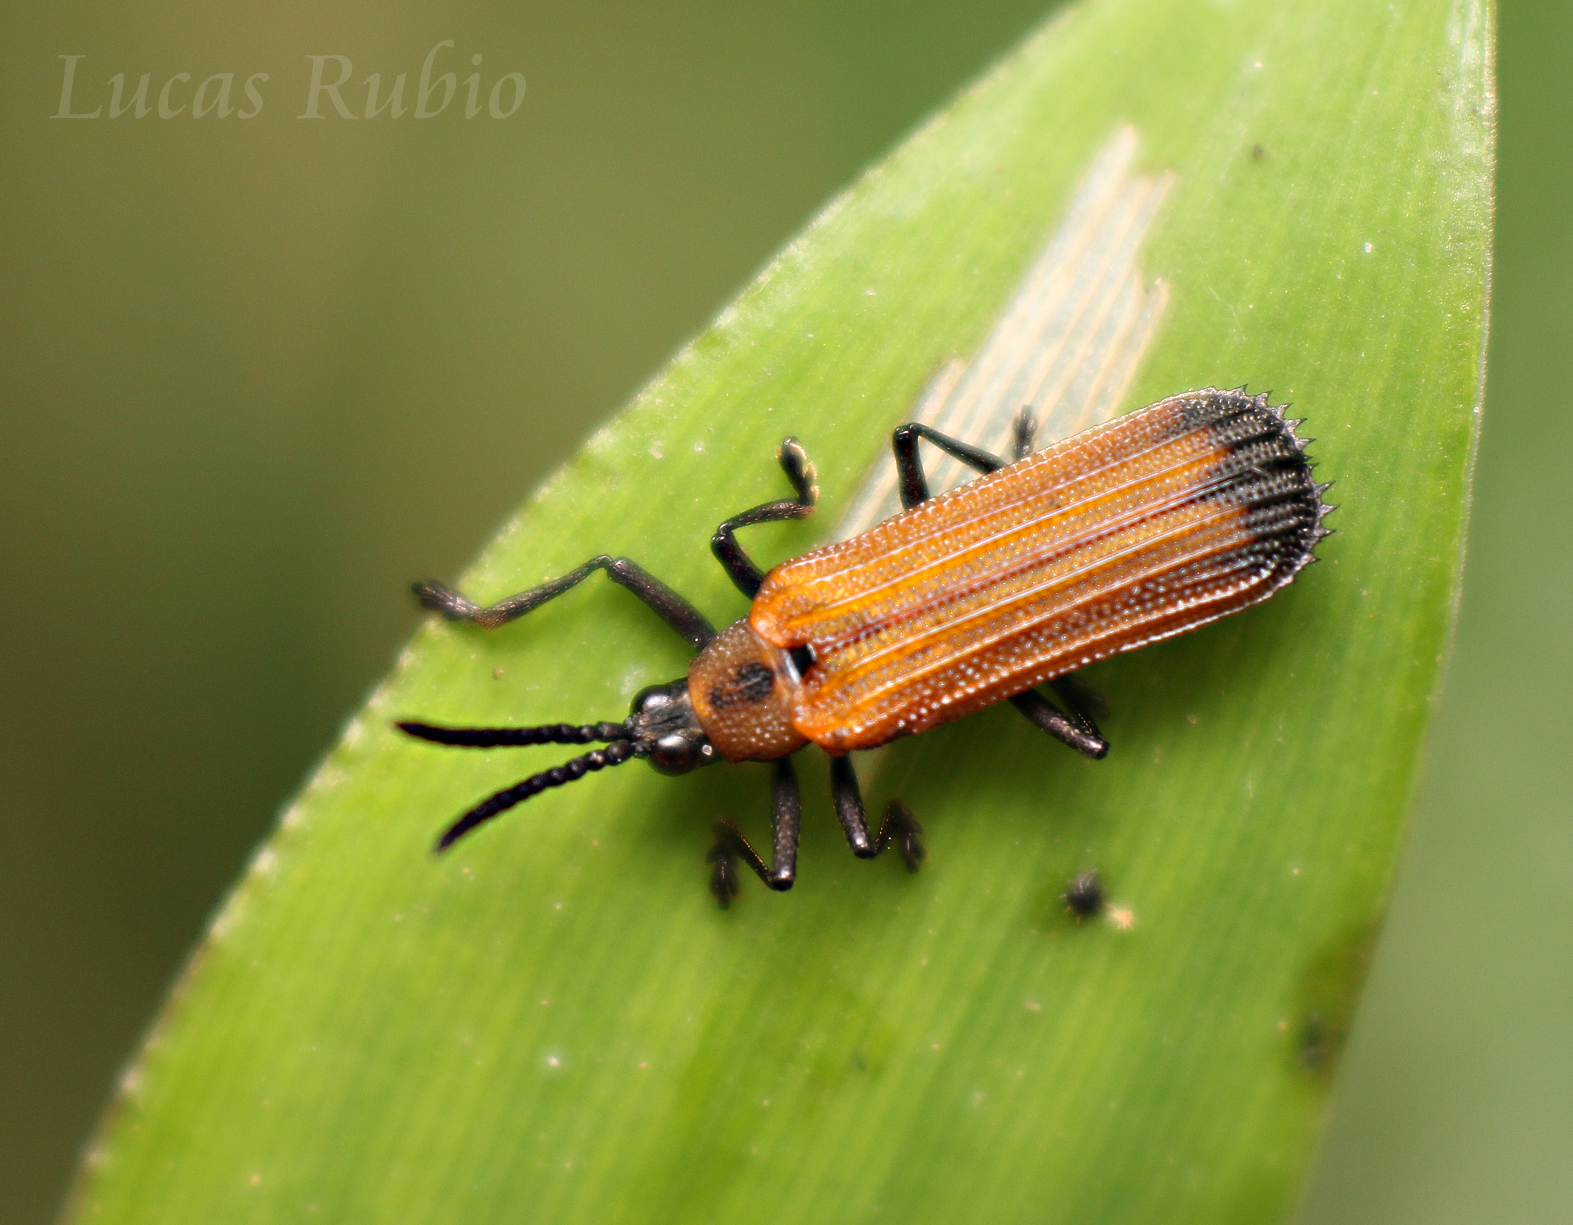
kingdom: Animalia
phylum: Arthropoda
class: Insecta
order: Coleoptera
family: Chrysomelidae
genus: Chalepus
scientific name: Chalepus flaveolus
